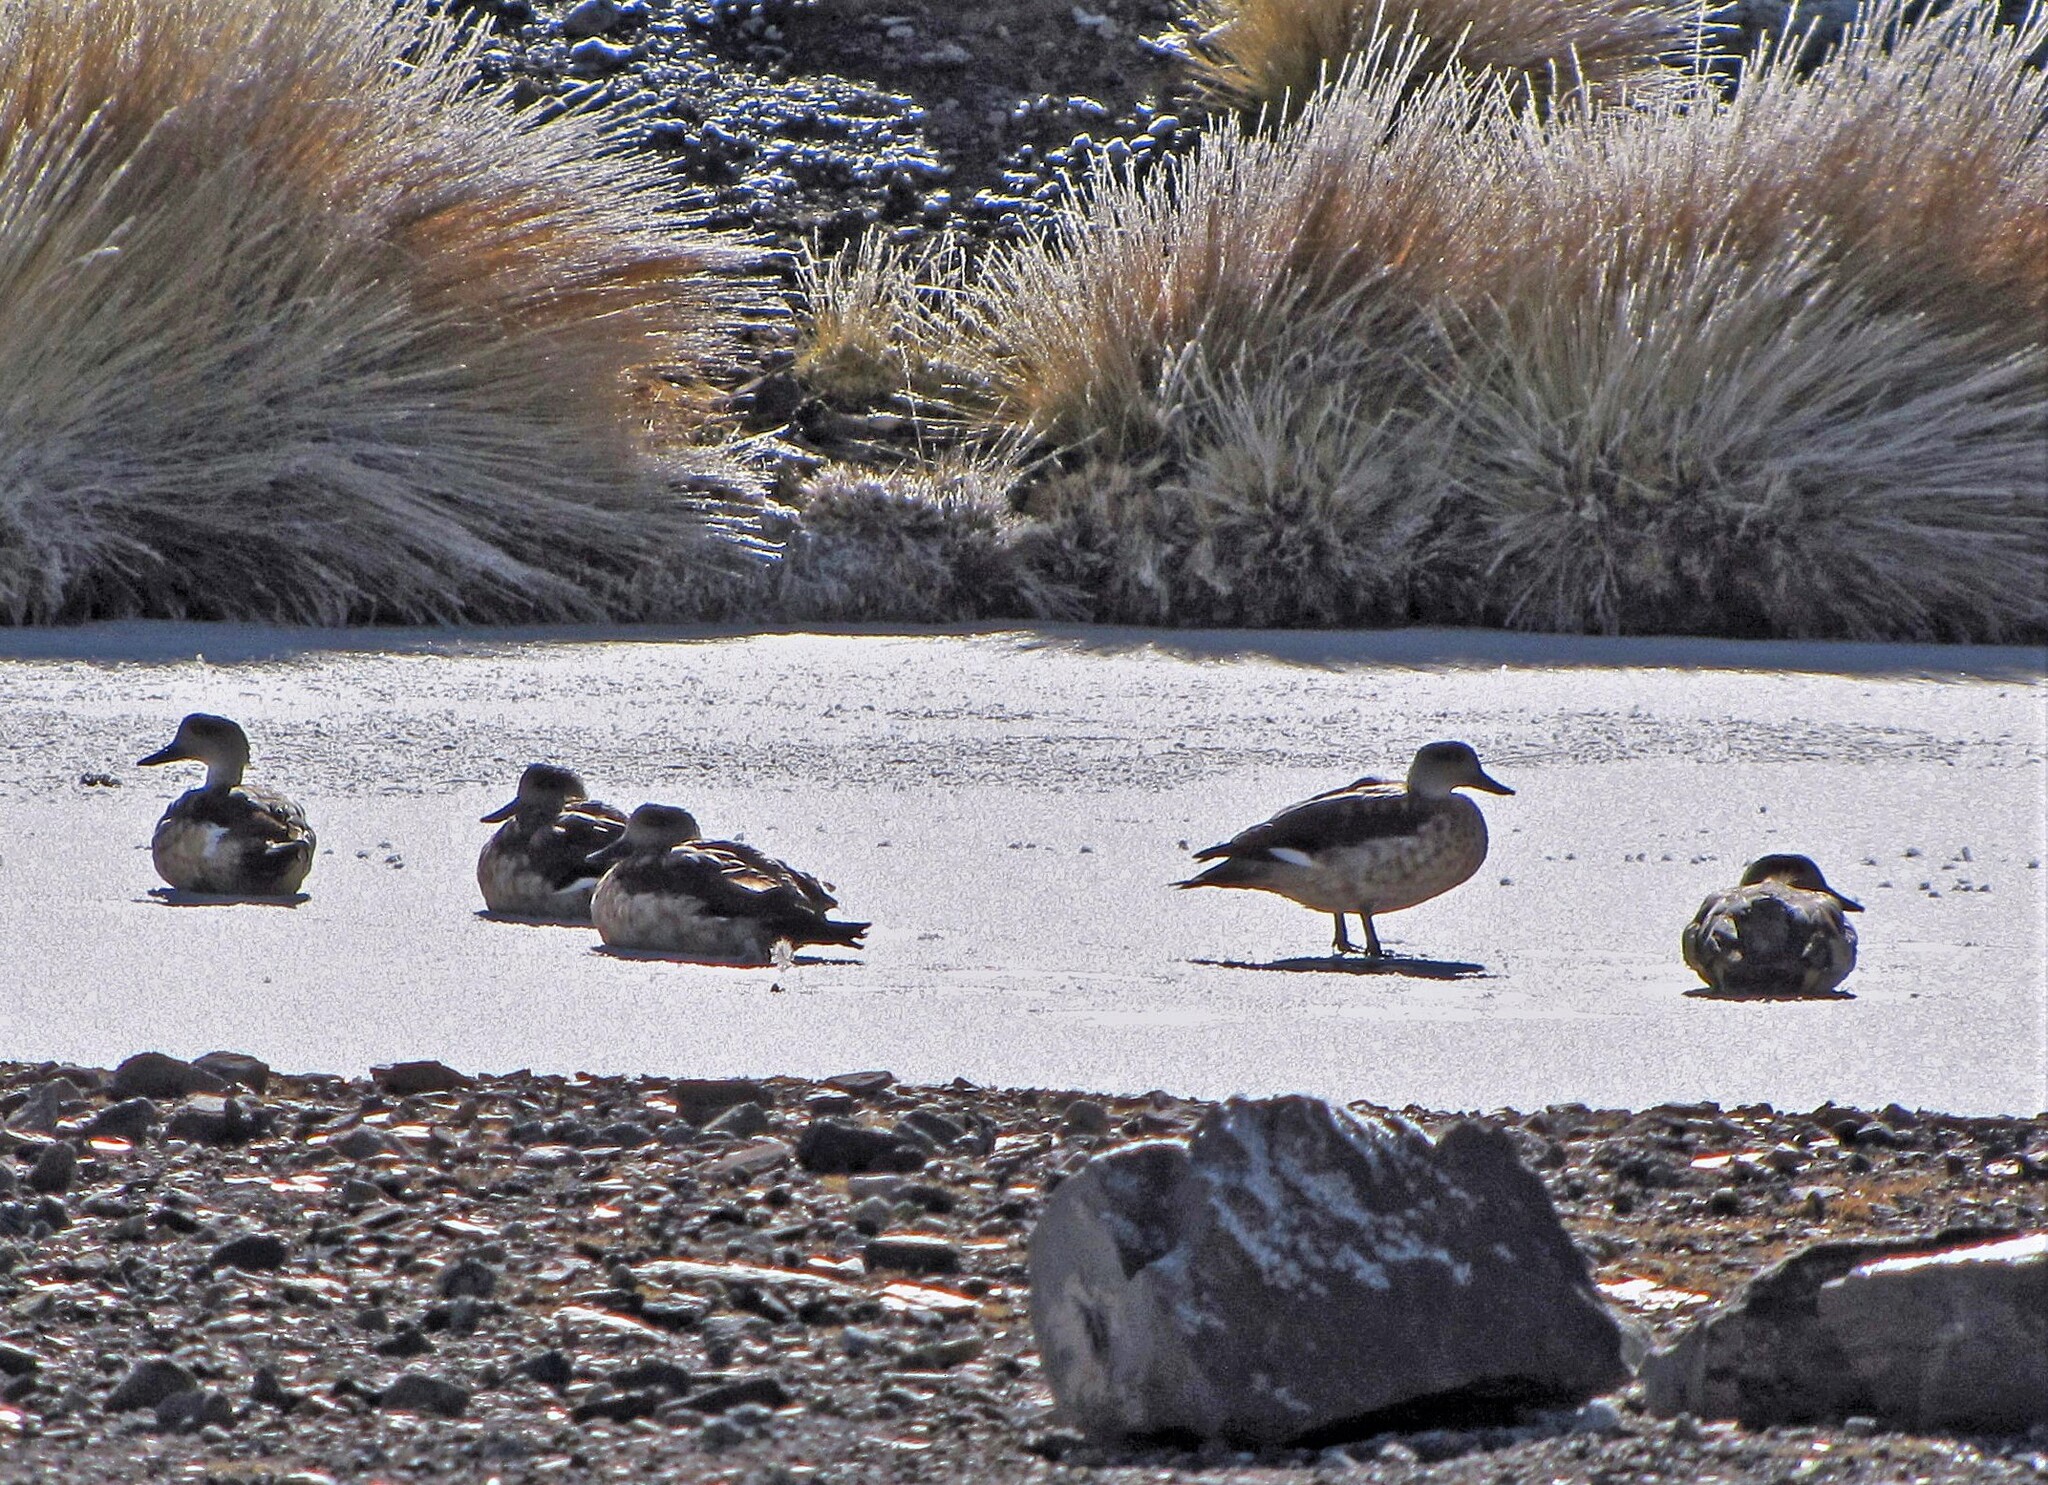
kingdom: Animalia
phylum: Chordata
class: Aves
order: Anseriformes
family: Anatidae
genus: Lophonetta
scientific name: Lophonetta specularioides
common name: Crested duck
